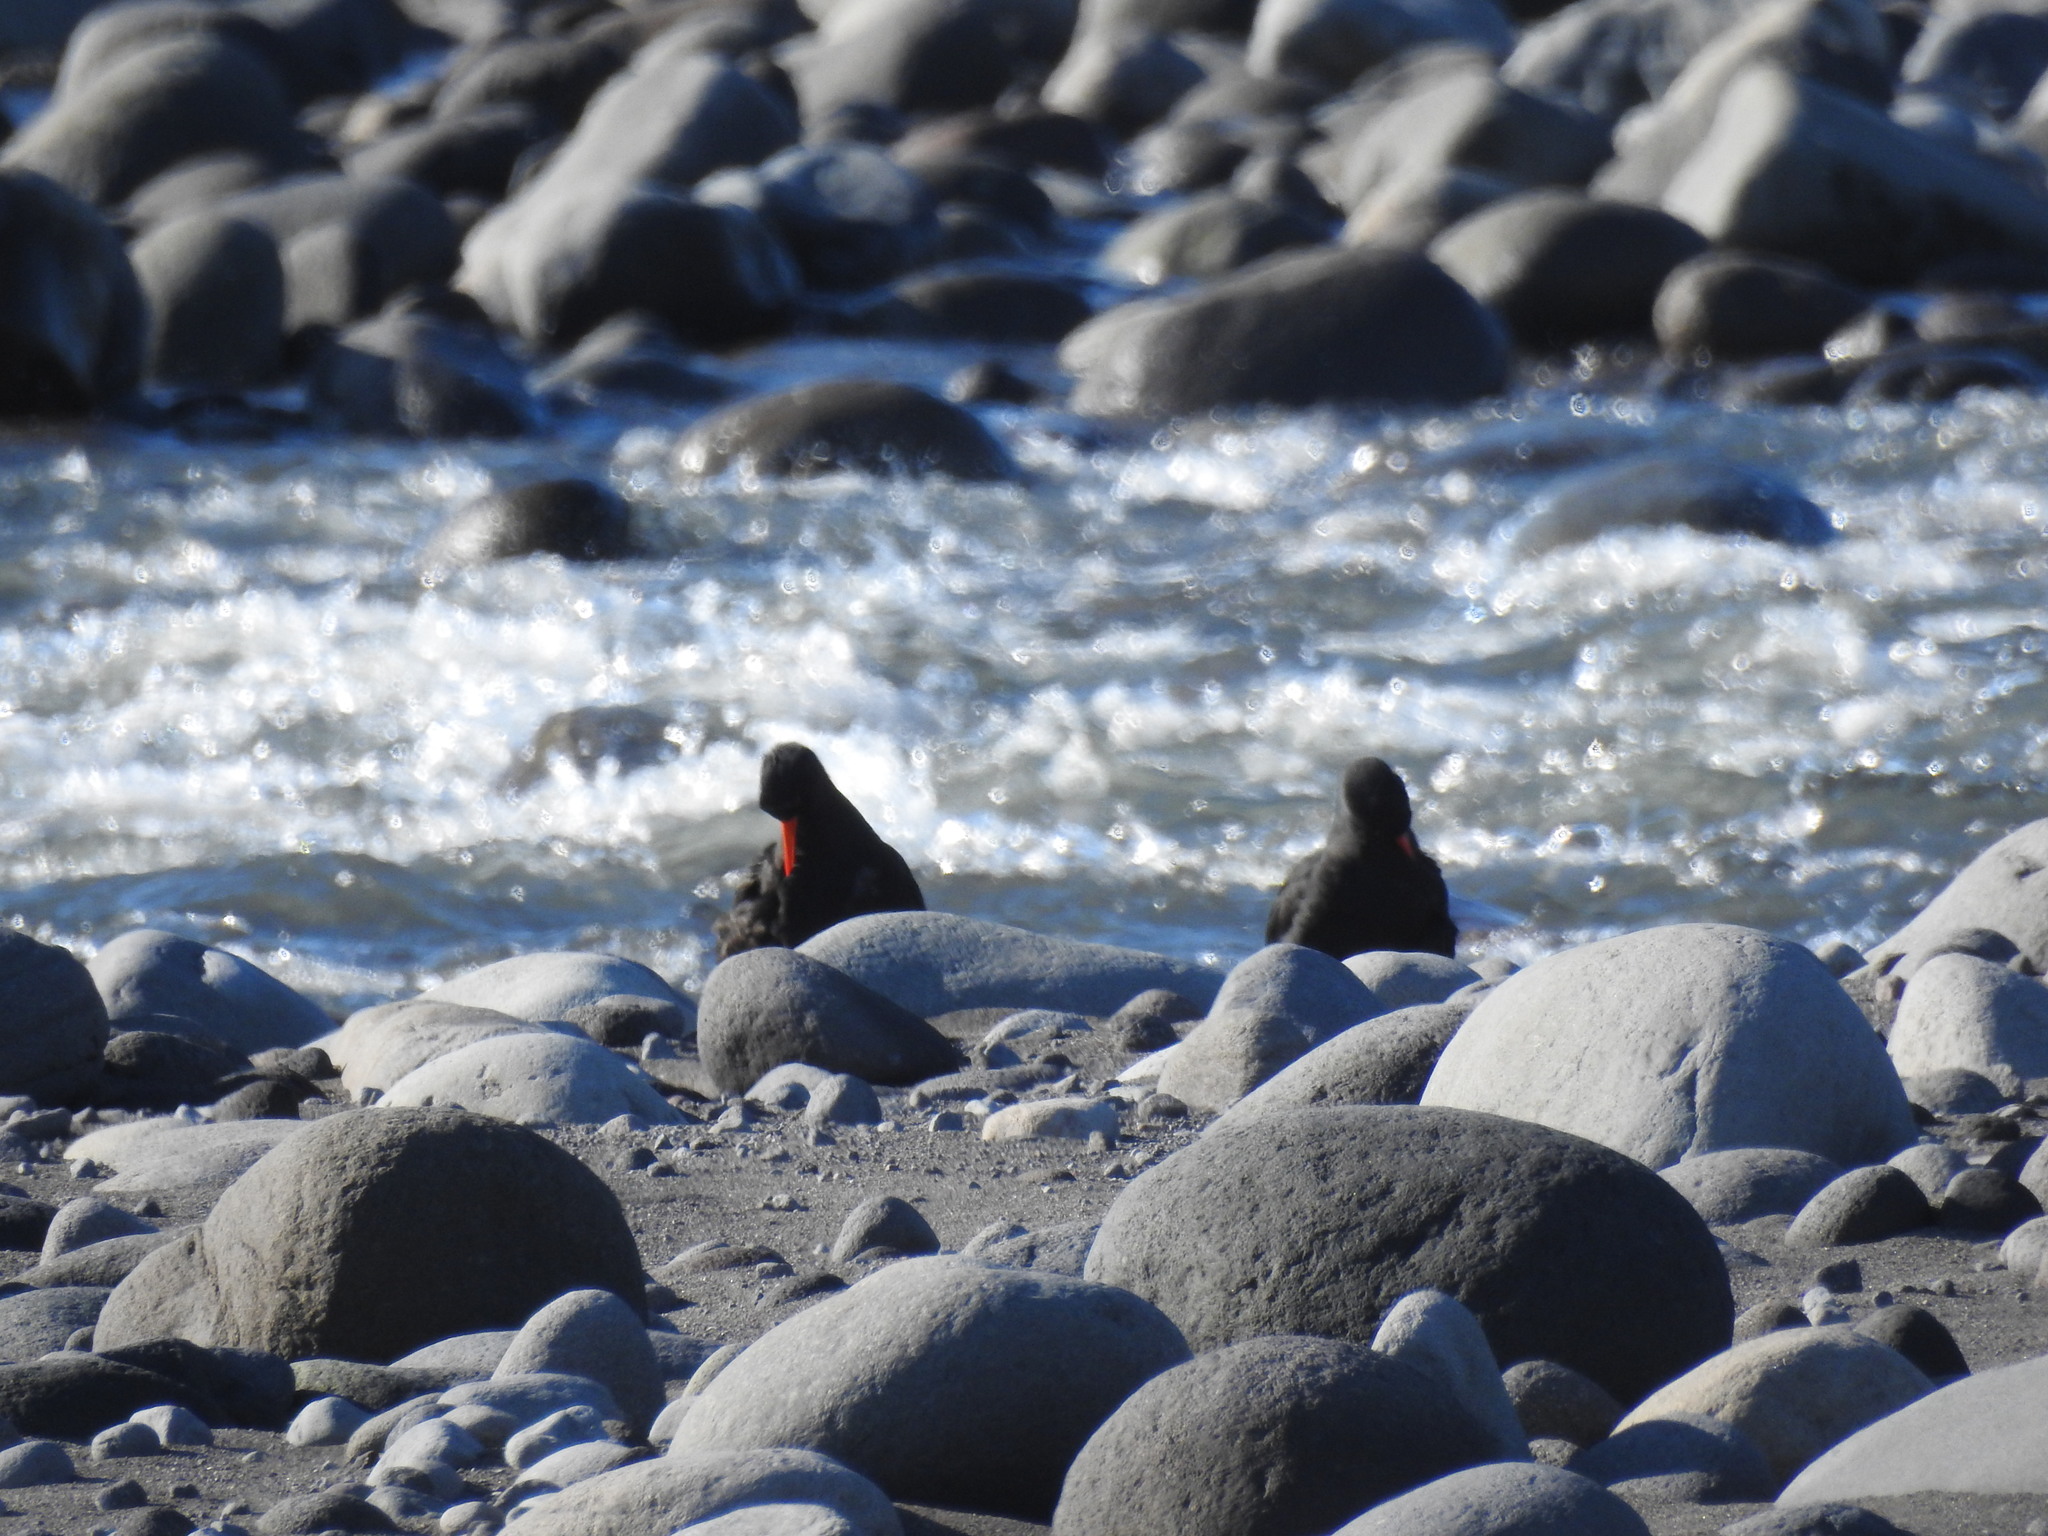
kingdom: Animalia
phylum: Chordata
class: Aves
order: Charadriiformes
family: Haematopodidae
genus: Haematopus
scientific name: Haematopus unicolor
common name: Variable oystercatcher
